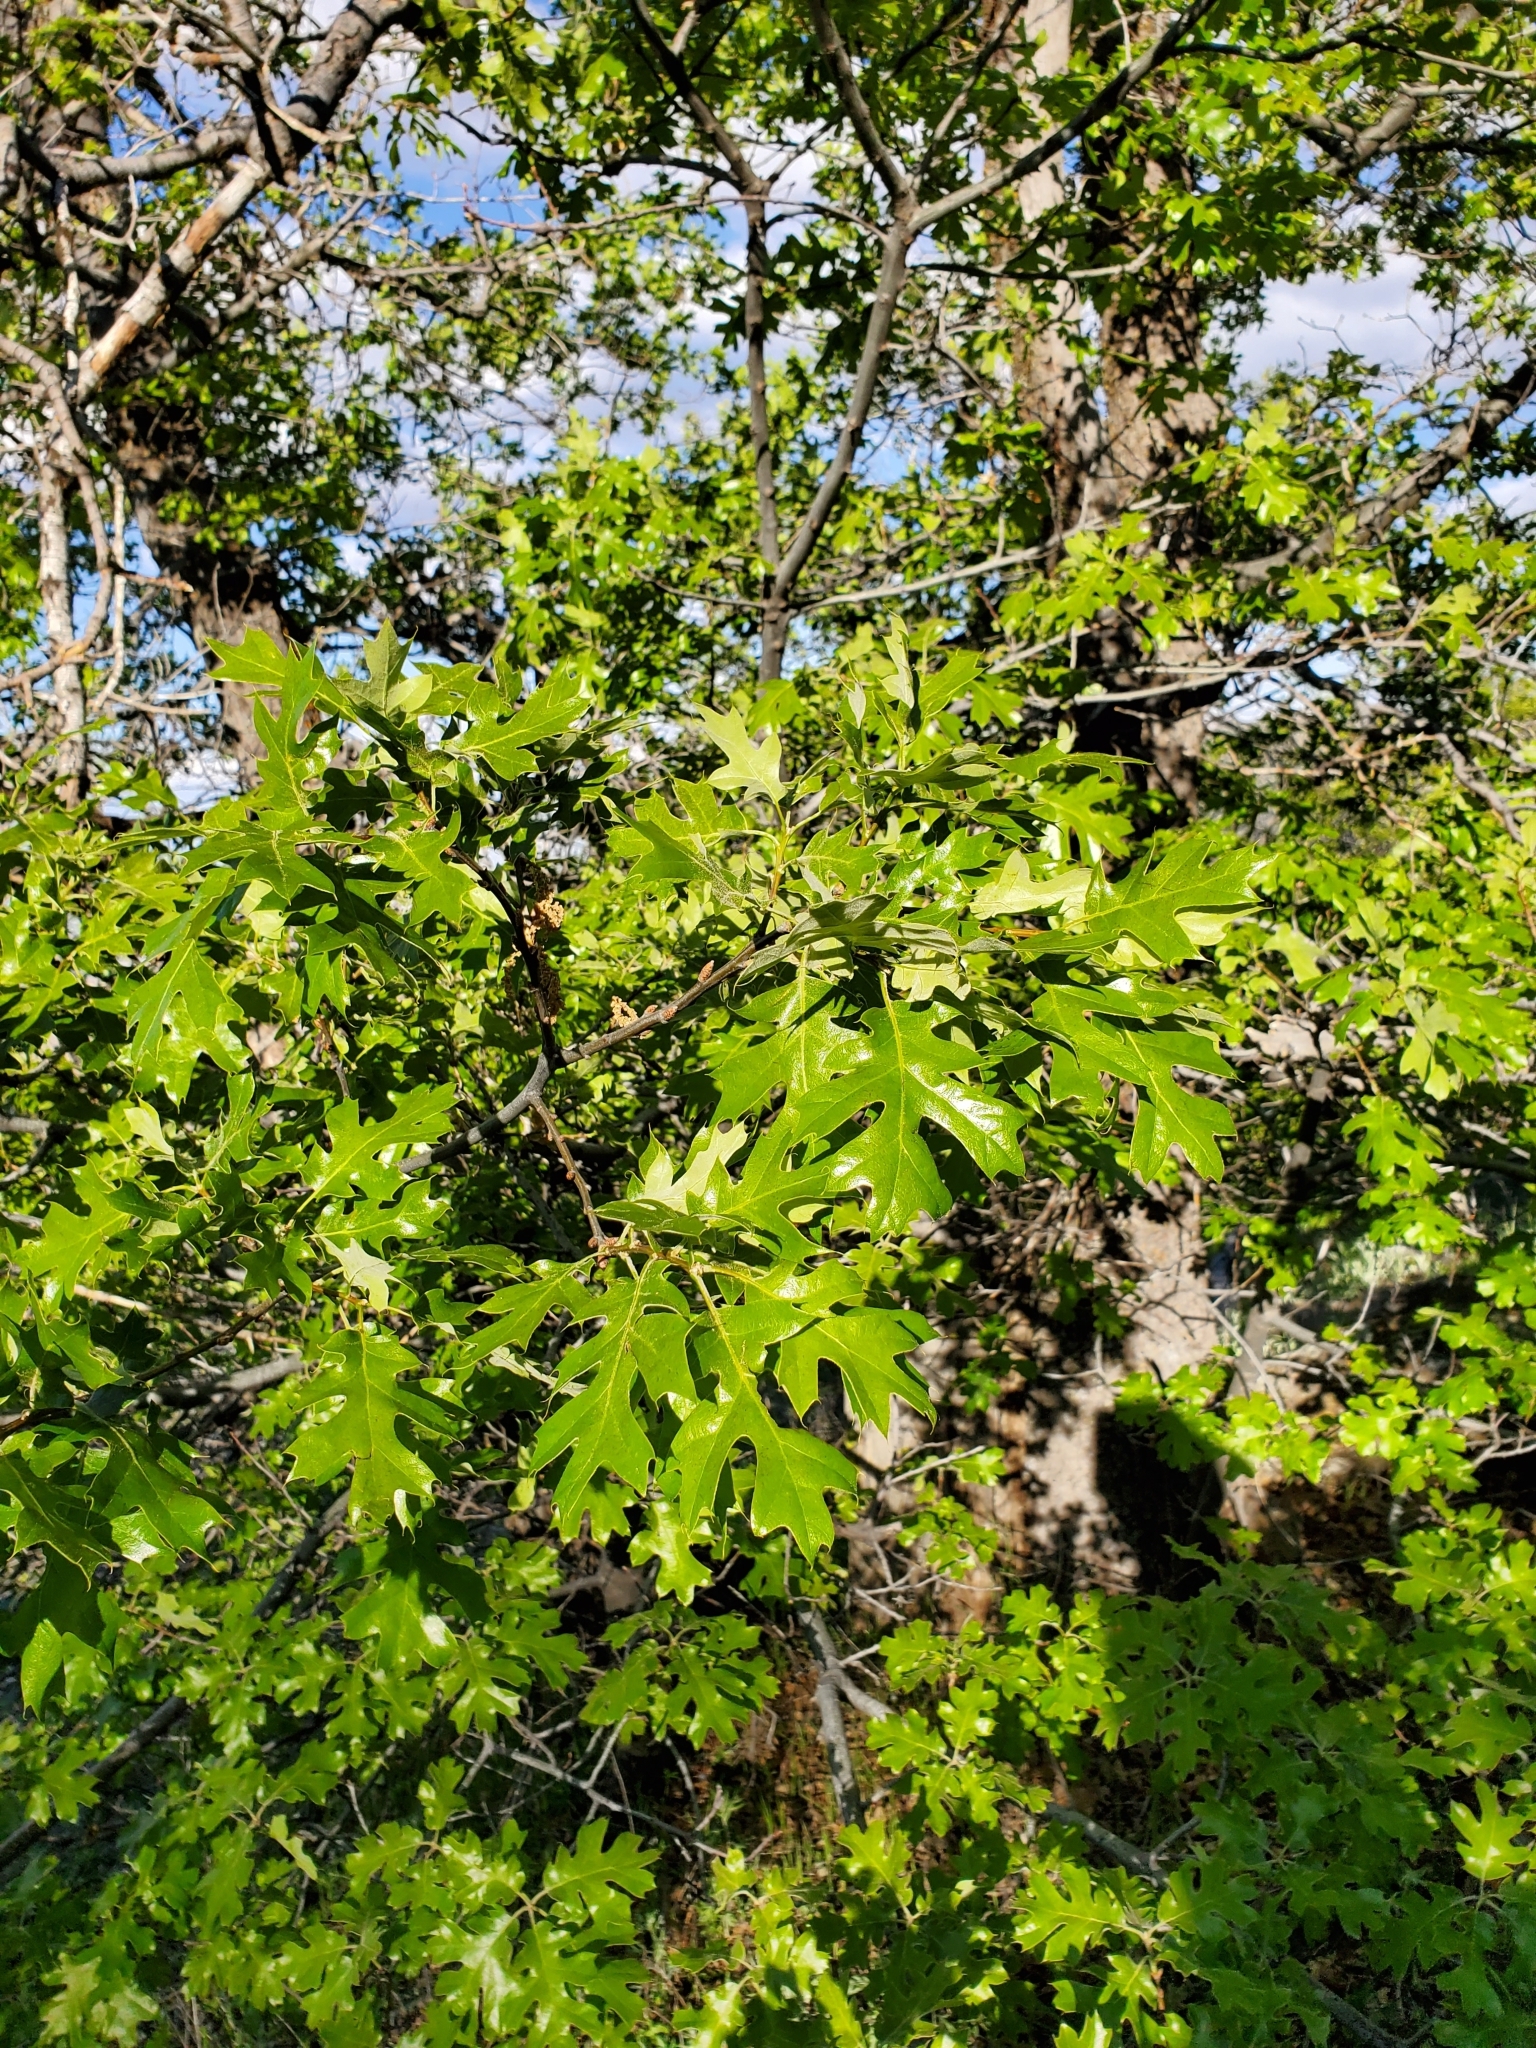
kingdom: Plantae
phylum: Tracheophyta
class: Magnoliopsida
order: Fagales
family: Fagaceae
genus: Quercus
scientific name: Quercus kelloggii
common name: California black oak
